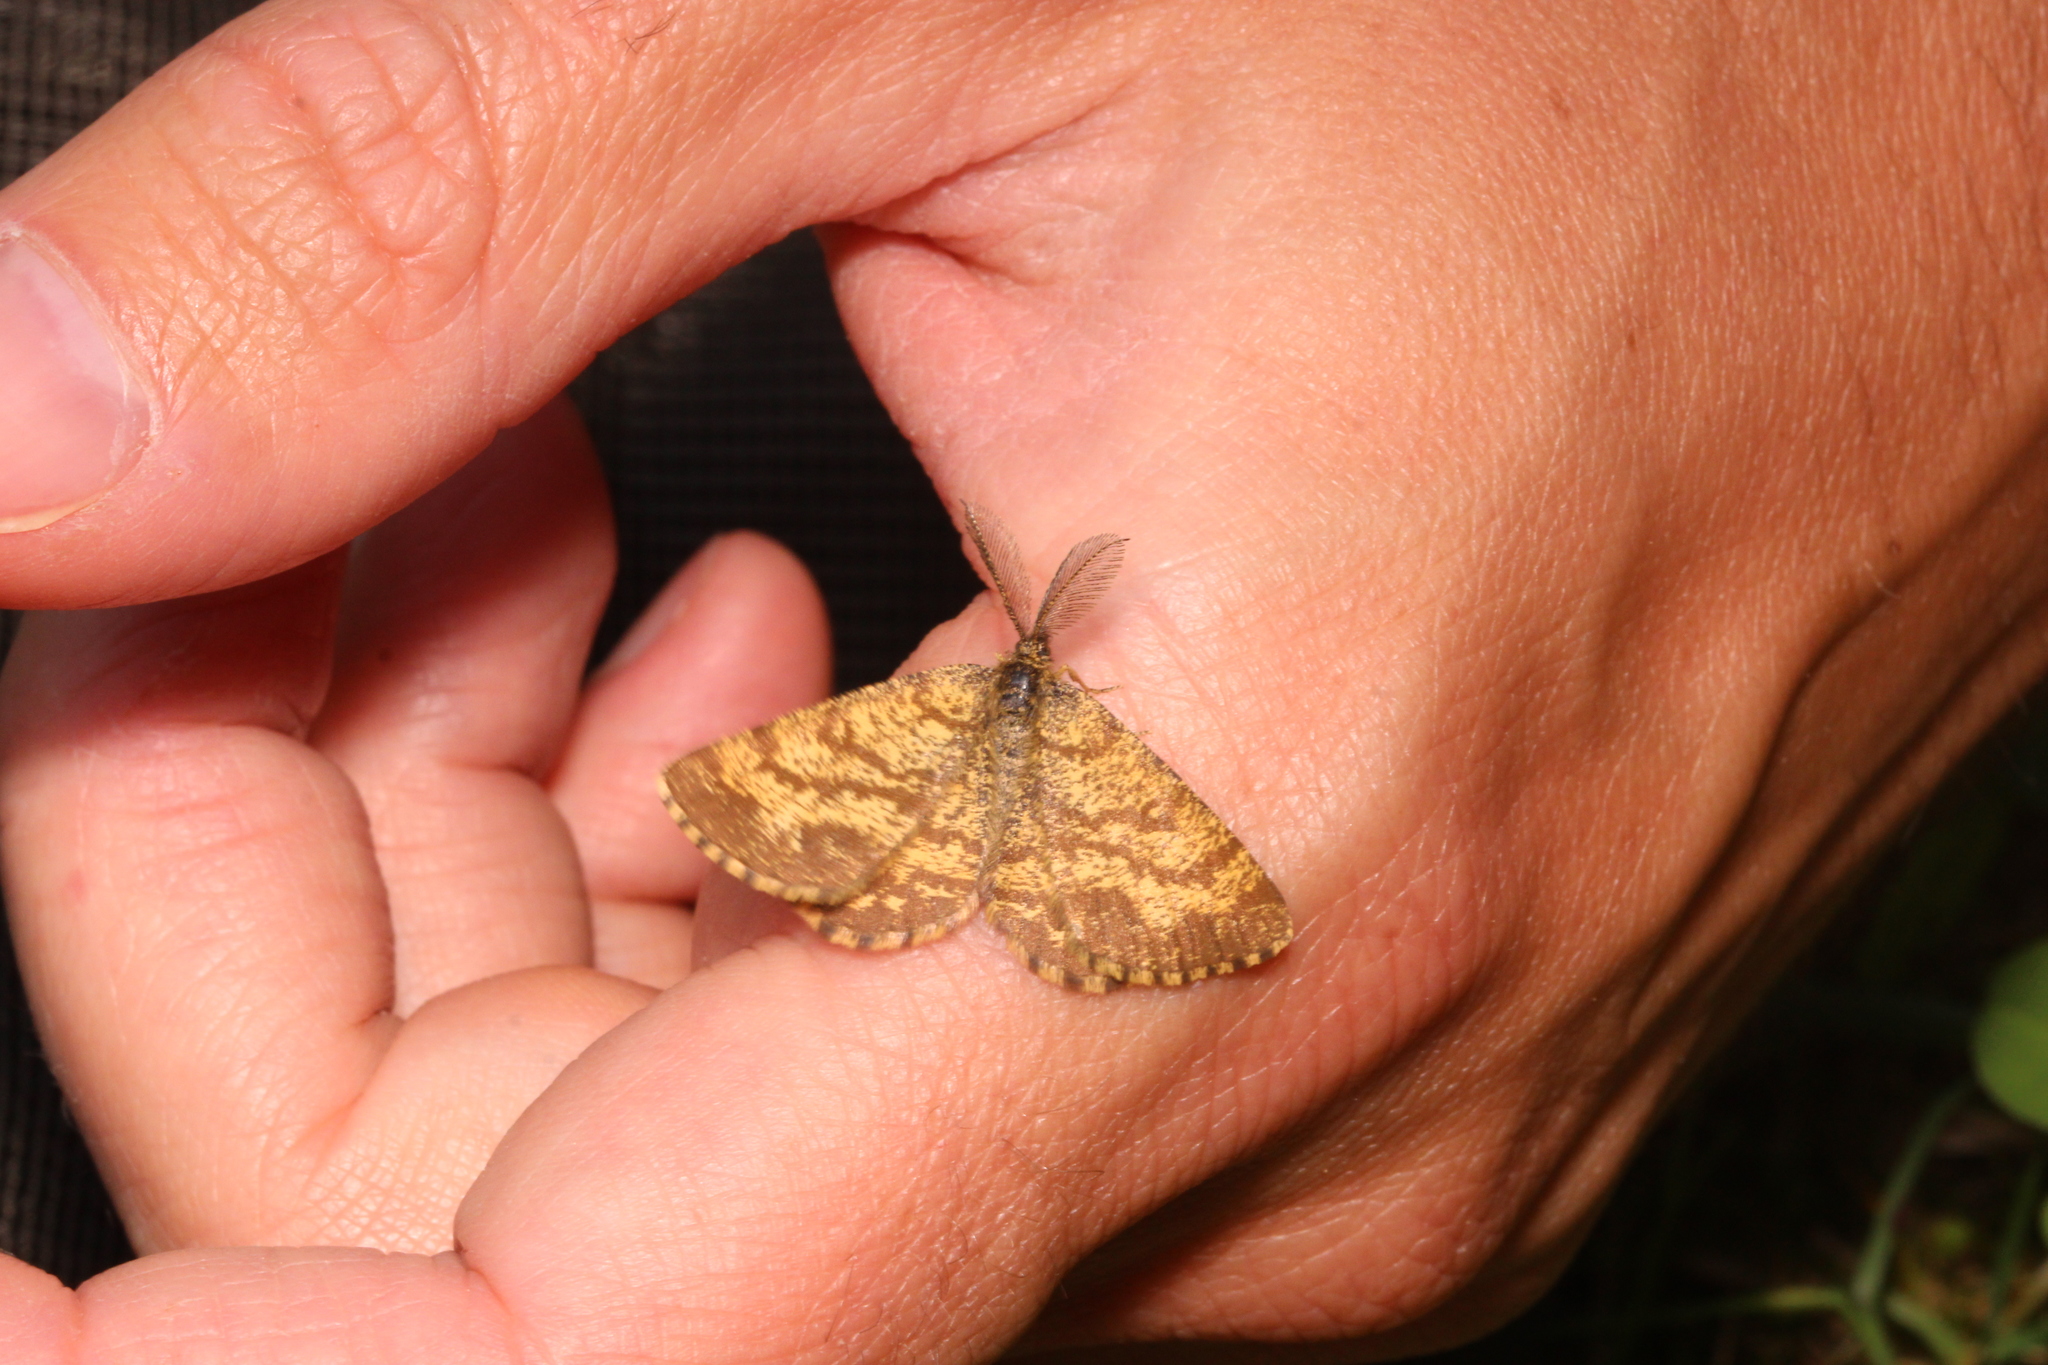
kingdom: Animalia
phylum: Arthropoda
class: Insecta
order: Lepidoptera
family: Geometridae
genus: Ematurga
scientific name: Ematurga atomaria
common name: Common heath
